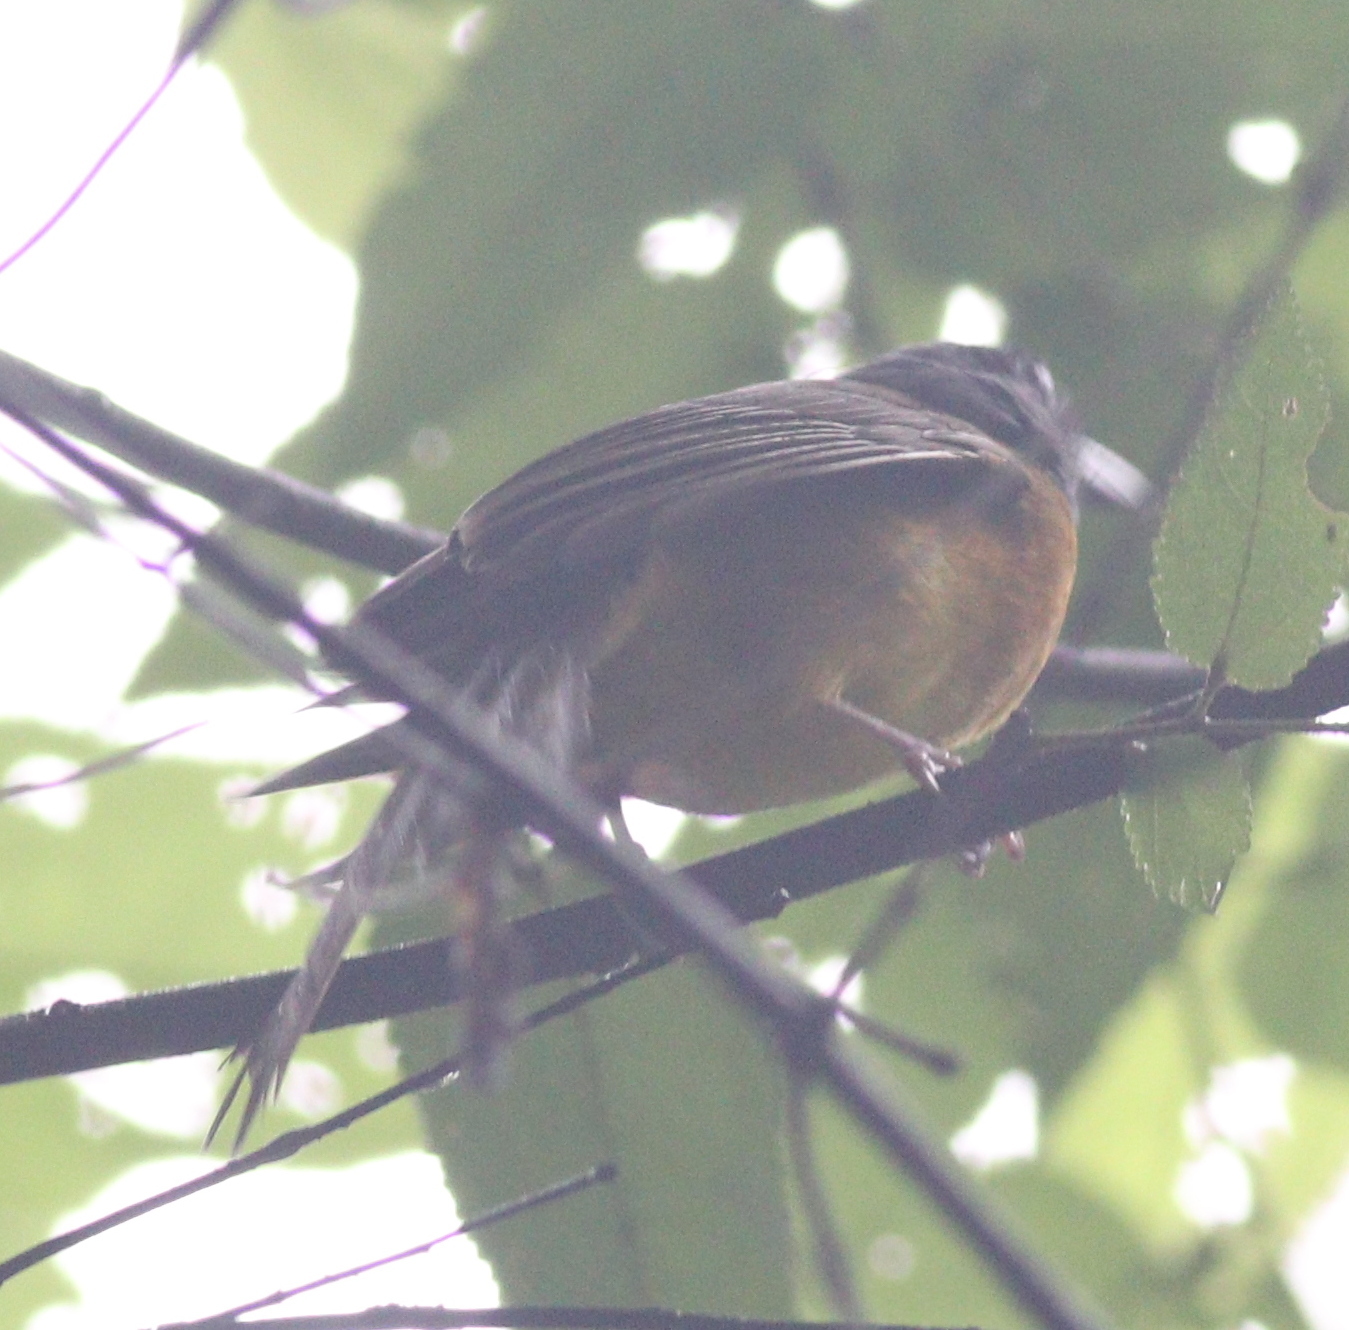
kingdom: Animalia
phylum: Chordata
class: Aves
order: Passeriformes
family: Thraupidae
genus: Eucometis
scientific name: Eucometis penicillata
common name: Grey-headed tanager
